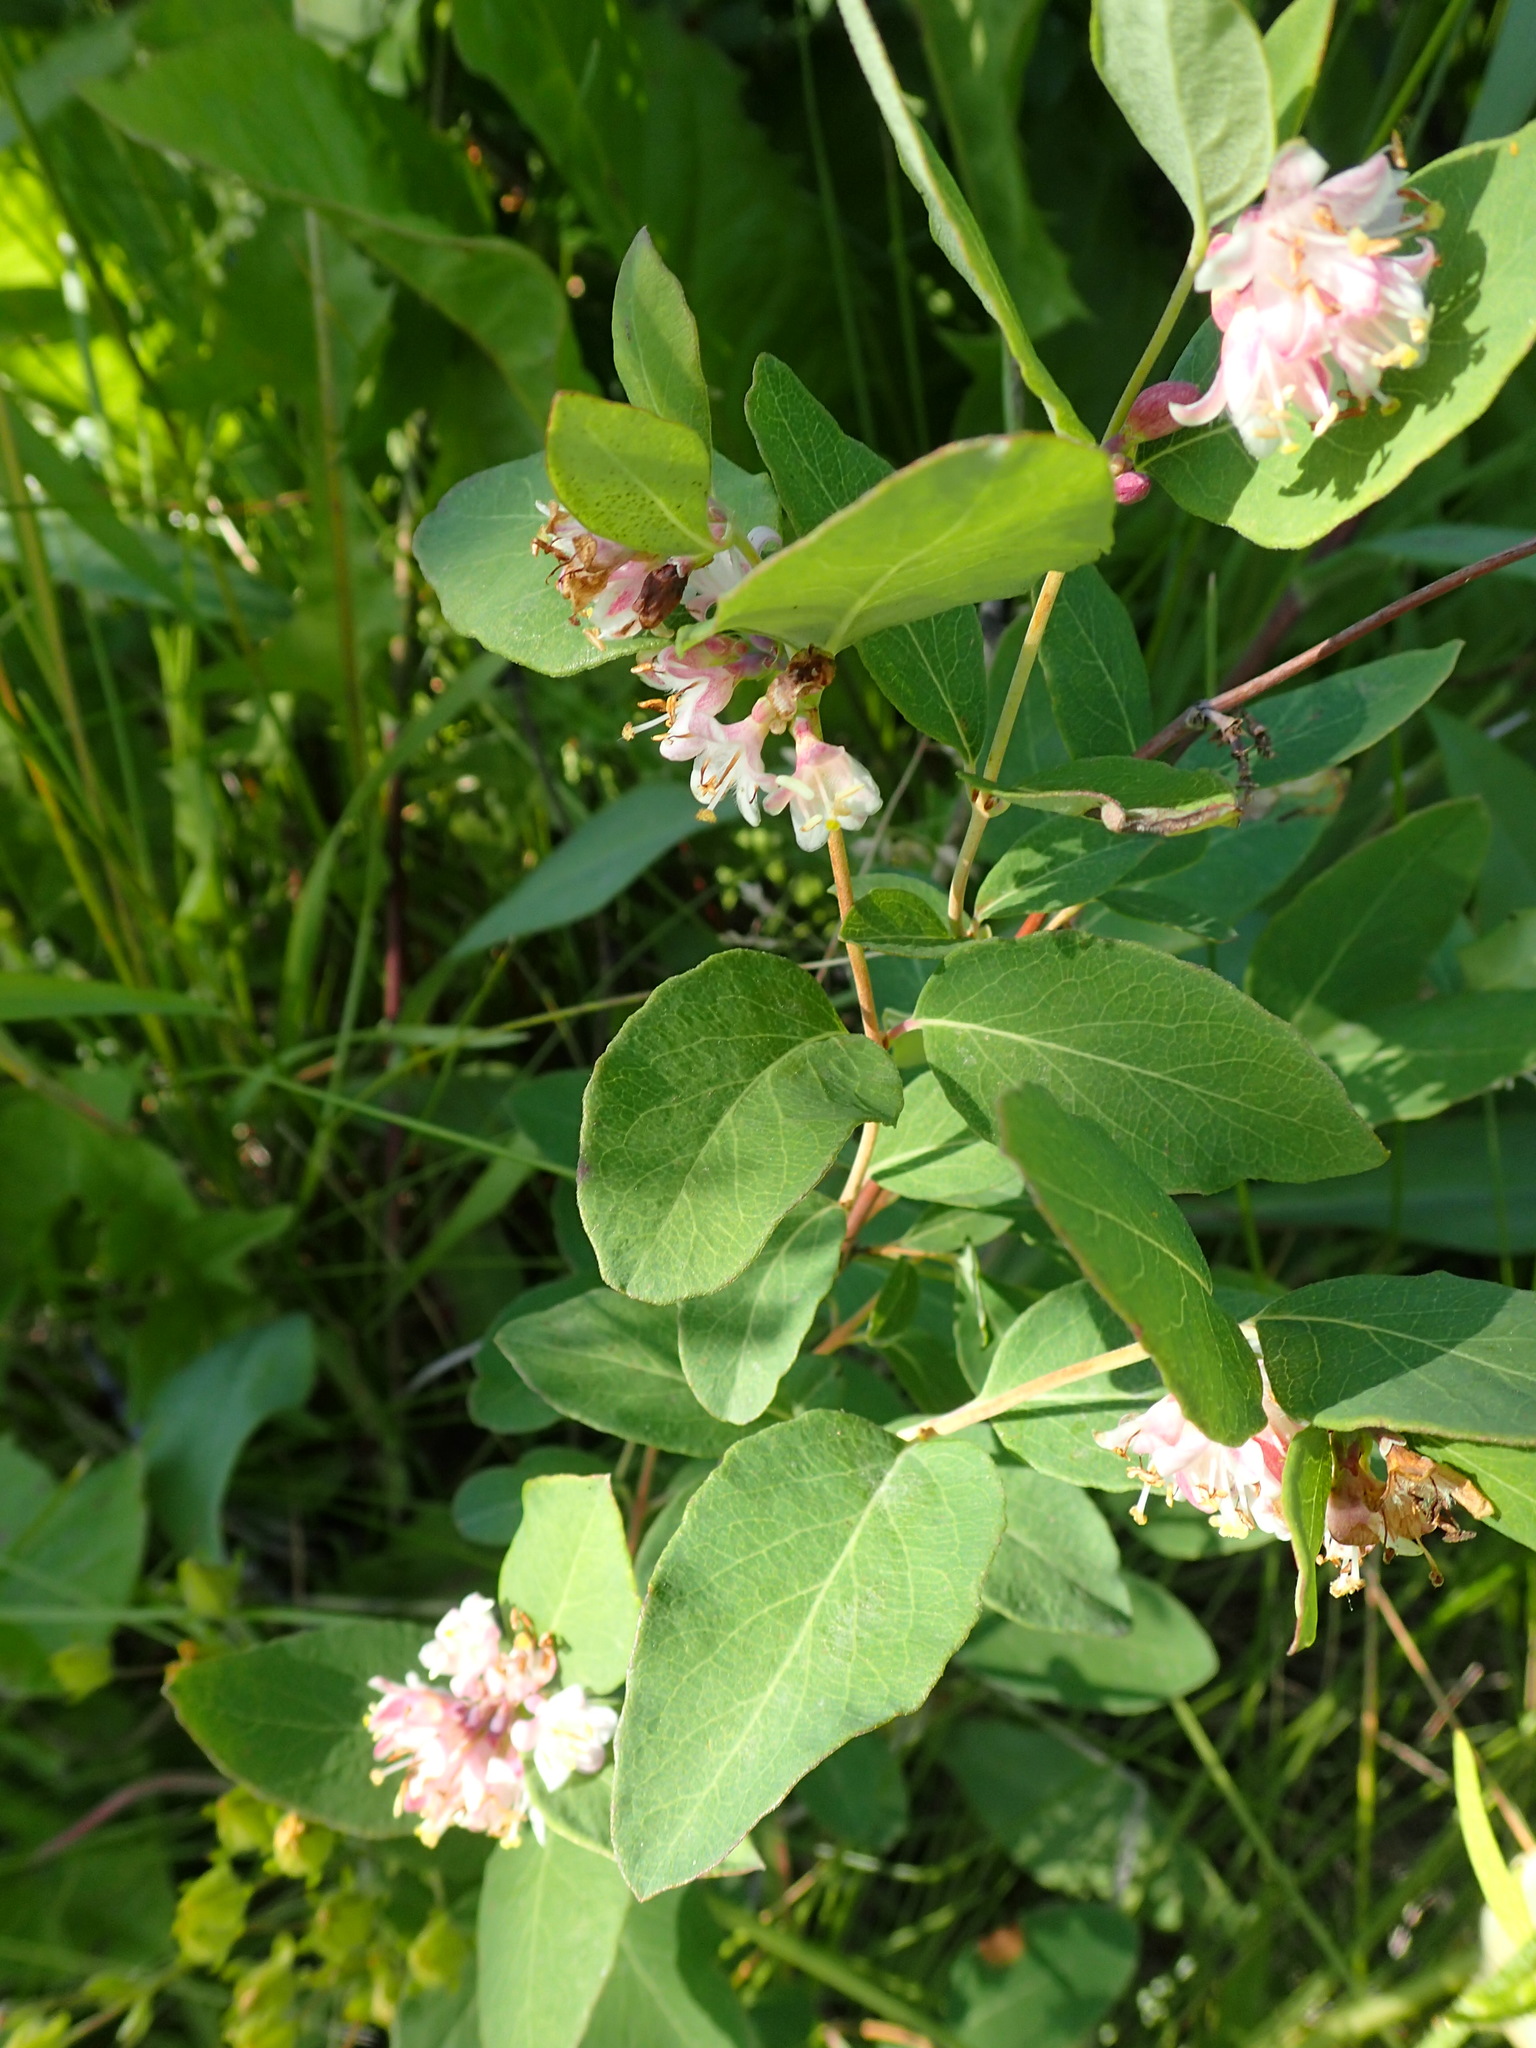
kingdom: Plantae
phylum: Tracheophyta
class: Magnoliopsida
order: Dipsacales
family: Caprifoliaceae
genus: Symphoricarpos
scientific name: Symphoricarpos occidentalis
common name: Wolfberry
